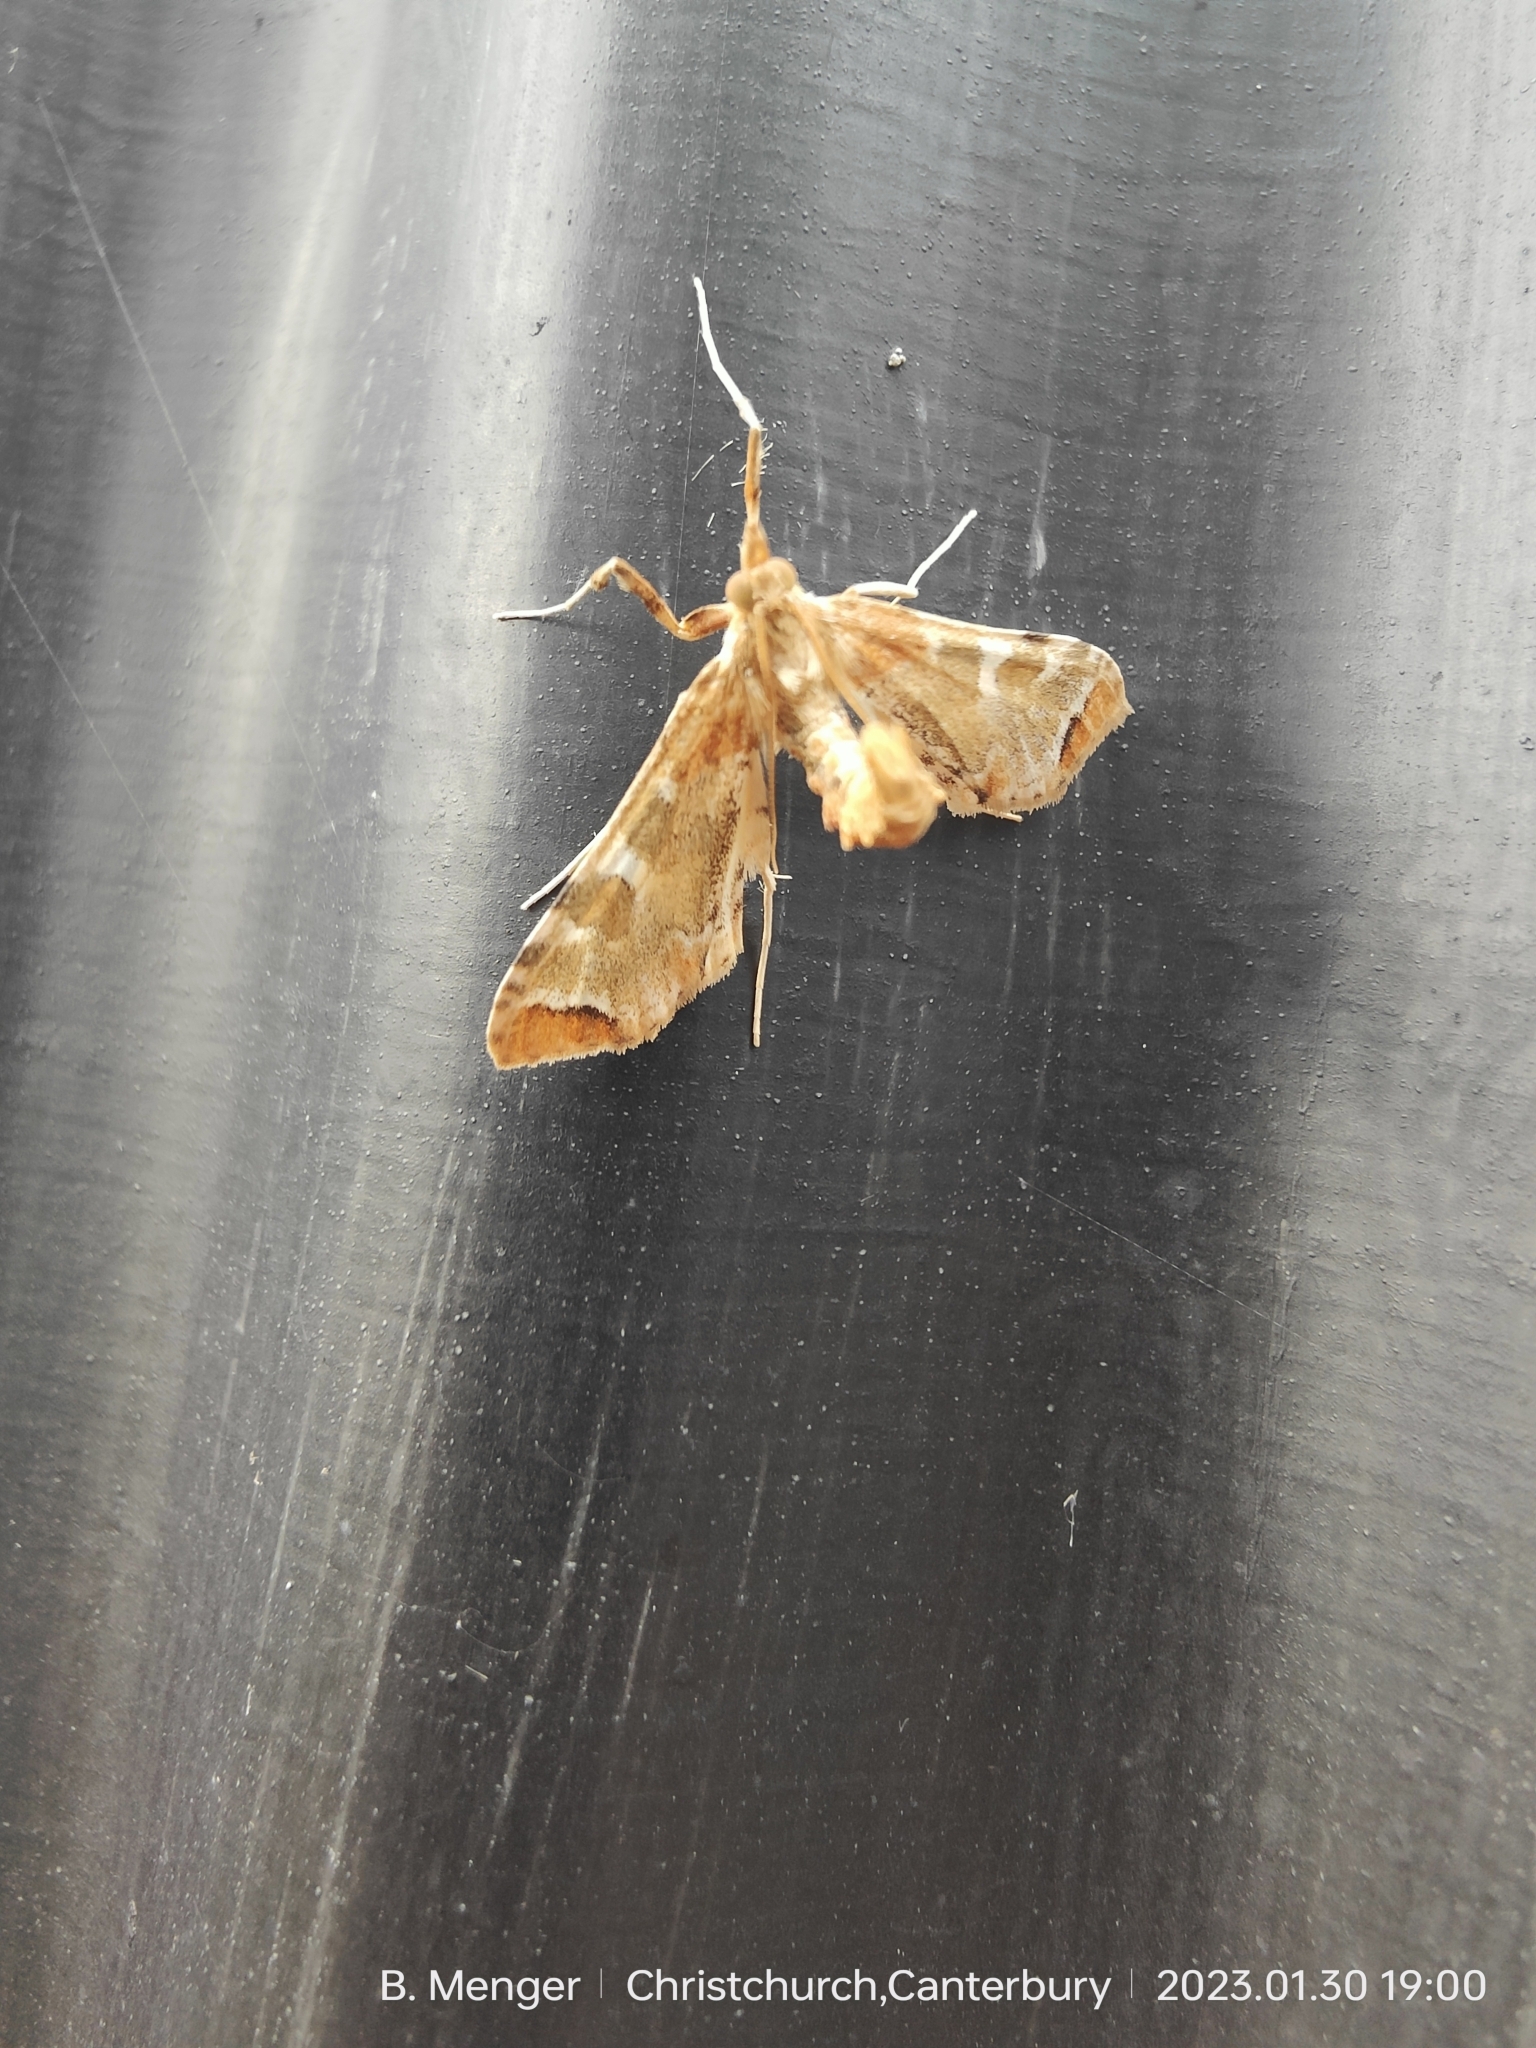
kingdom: Animalia
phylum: Arthropoda
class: Insecta
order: Lepidoptera
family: Crambidae
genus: Sceliodes
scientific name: Sceliodes cordalis
